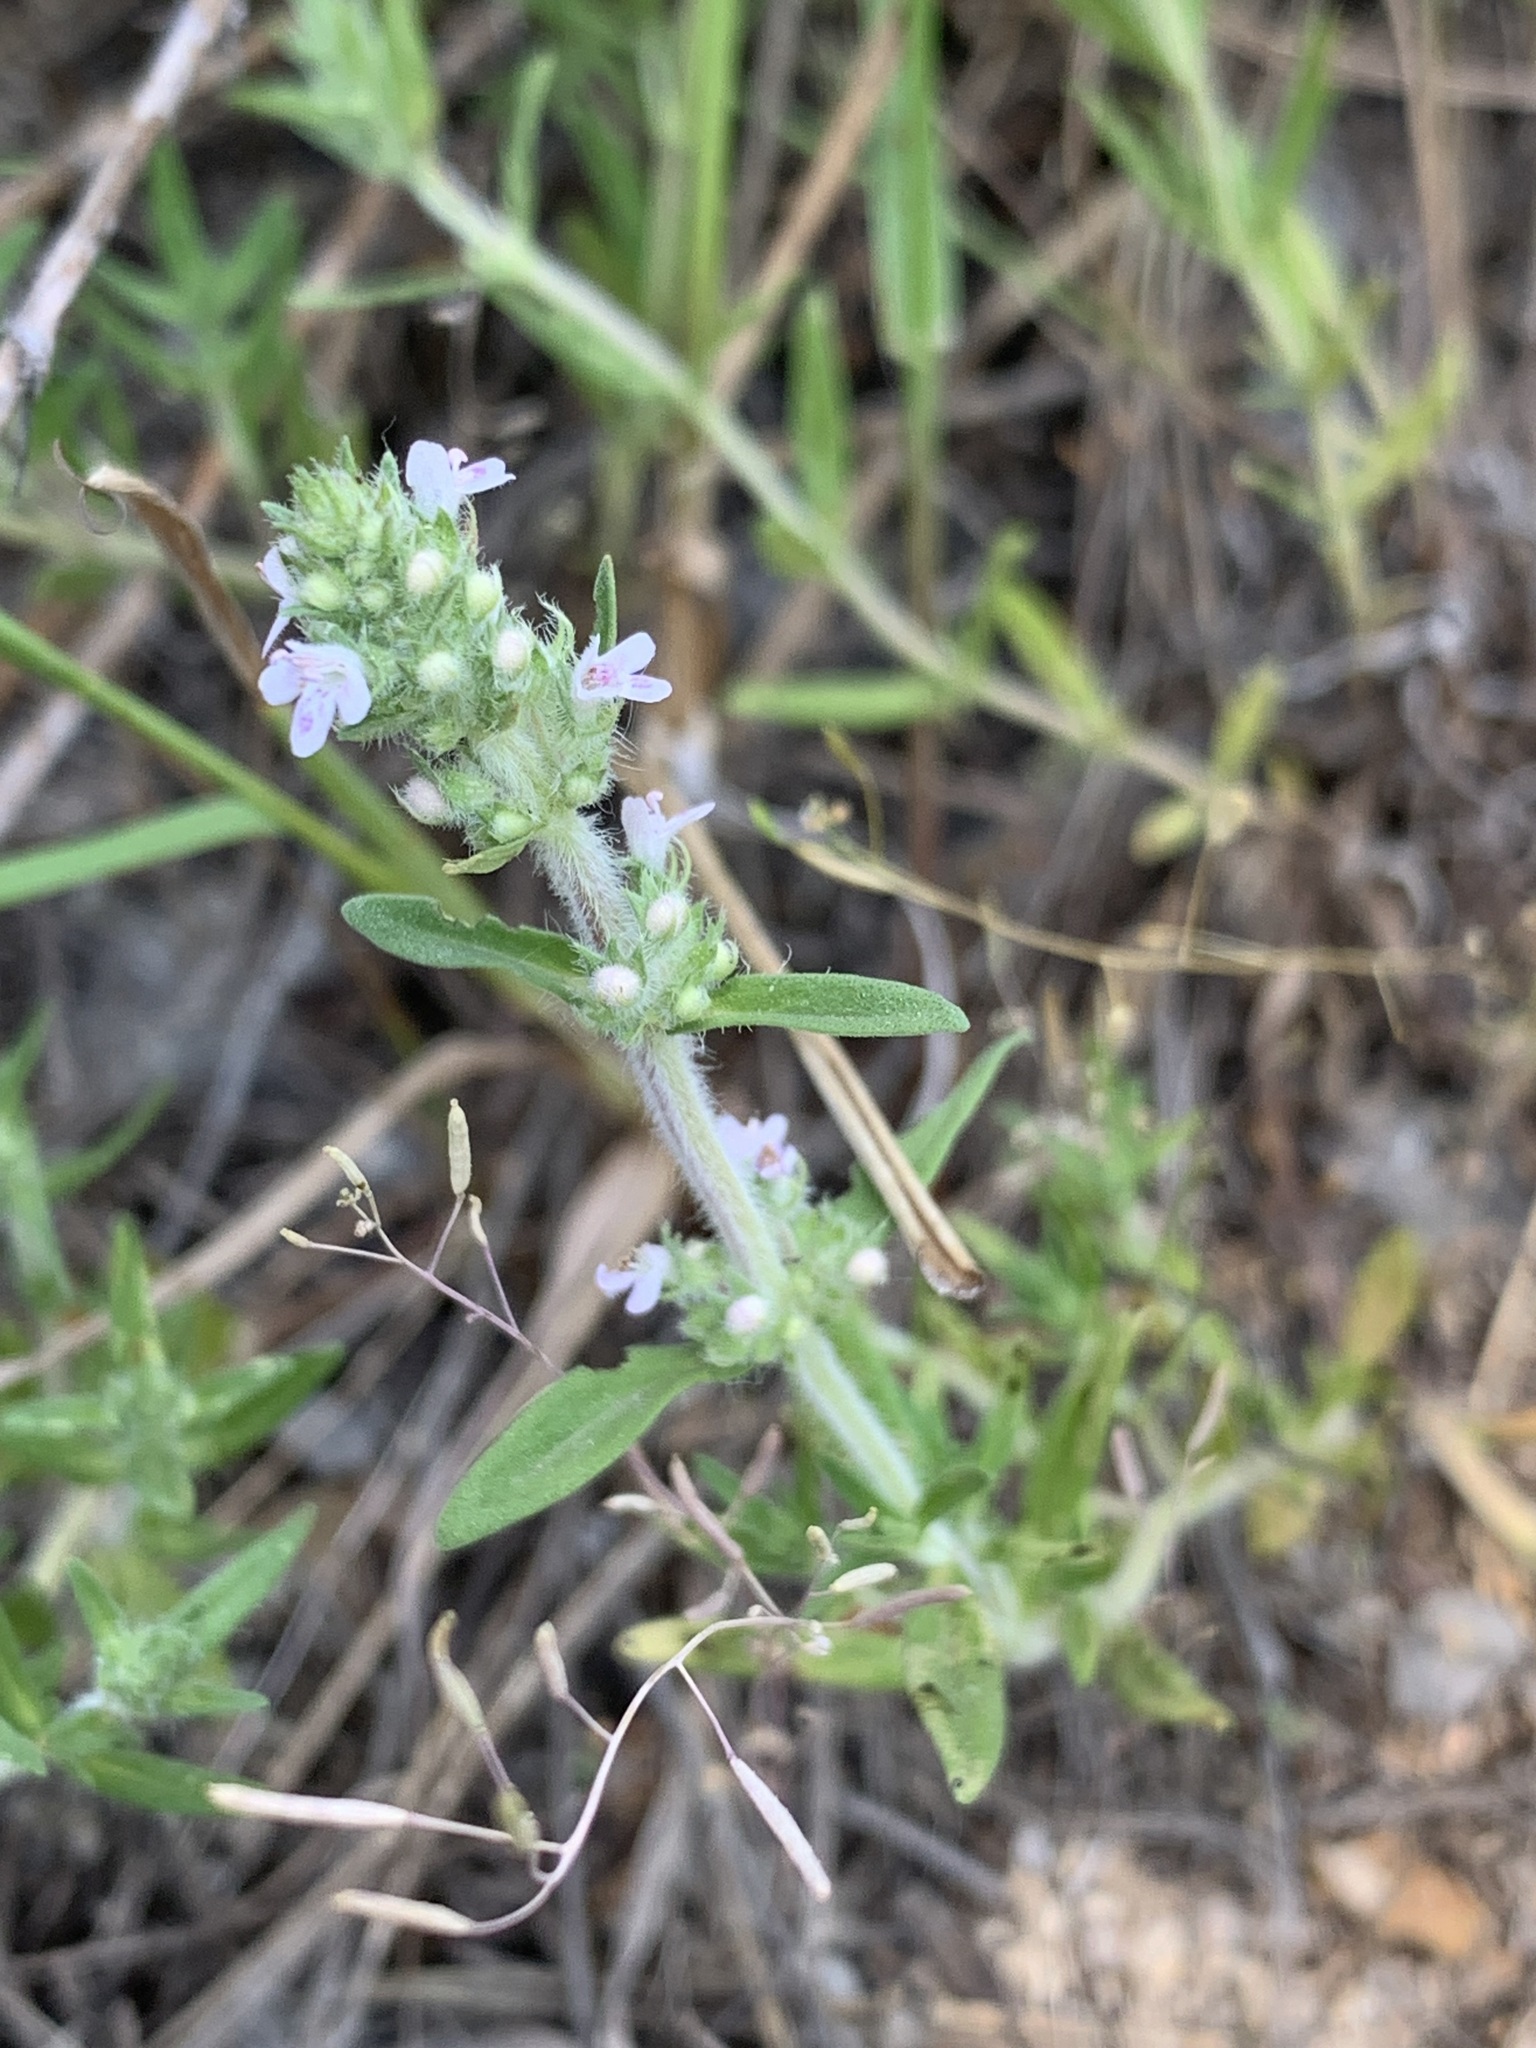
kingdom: Plantae
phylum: Tracheophyta
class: Magnoliopsida
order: Lamiales
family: Lamiaceae
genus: Thymus
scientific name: Thymus pannonicus
